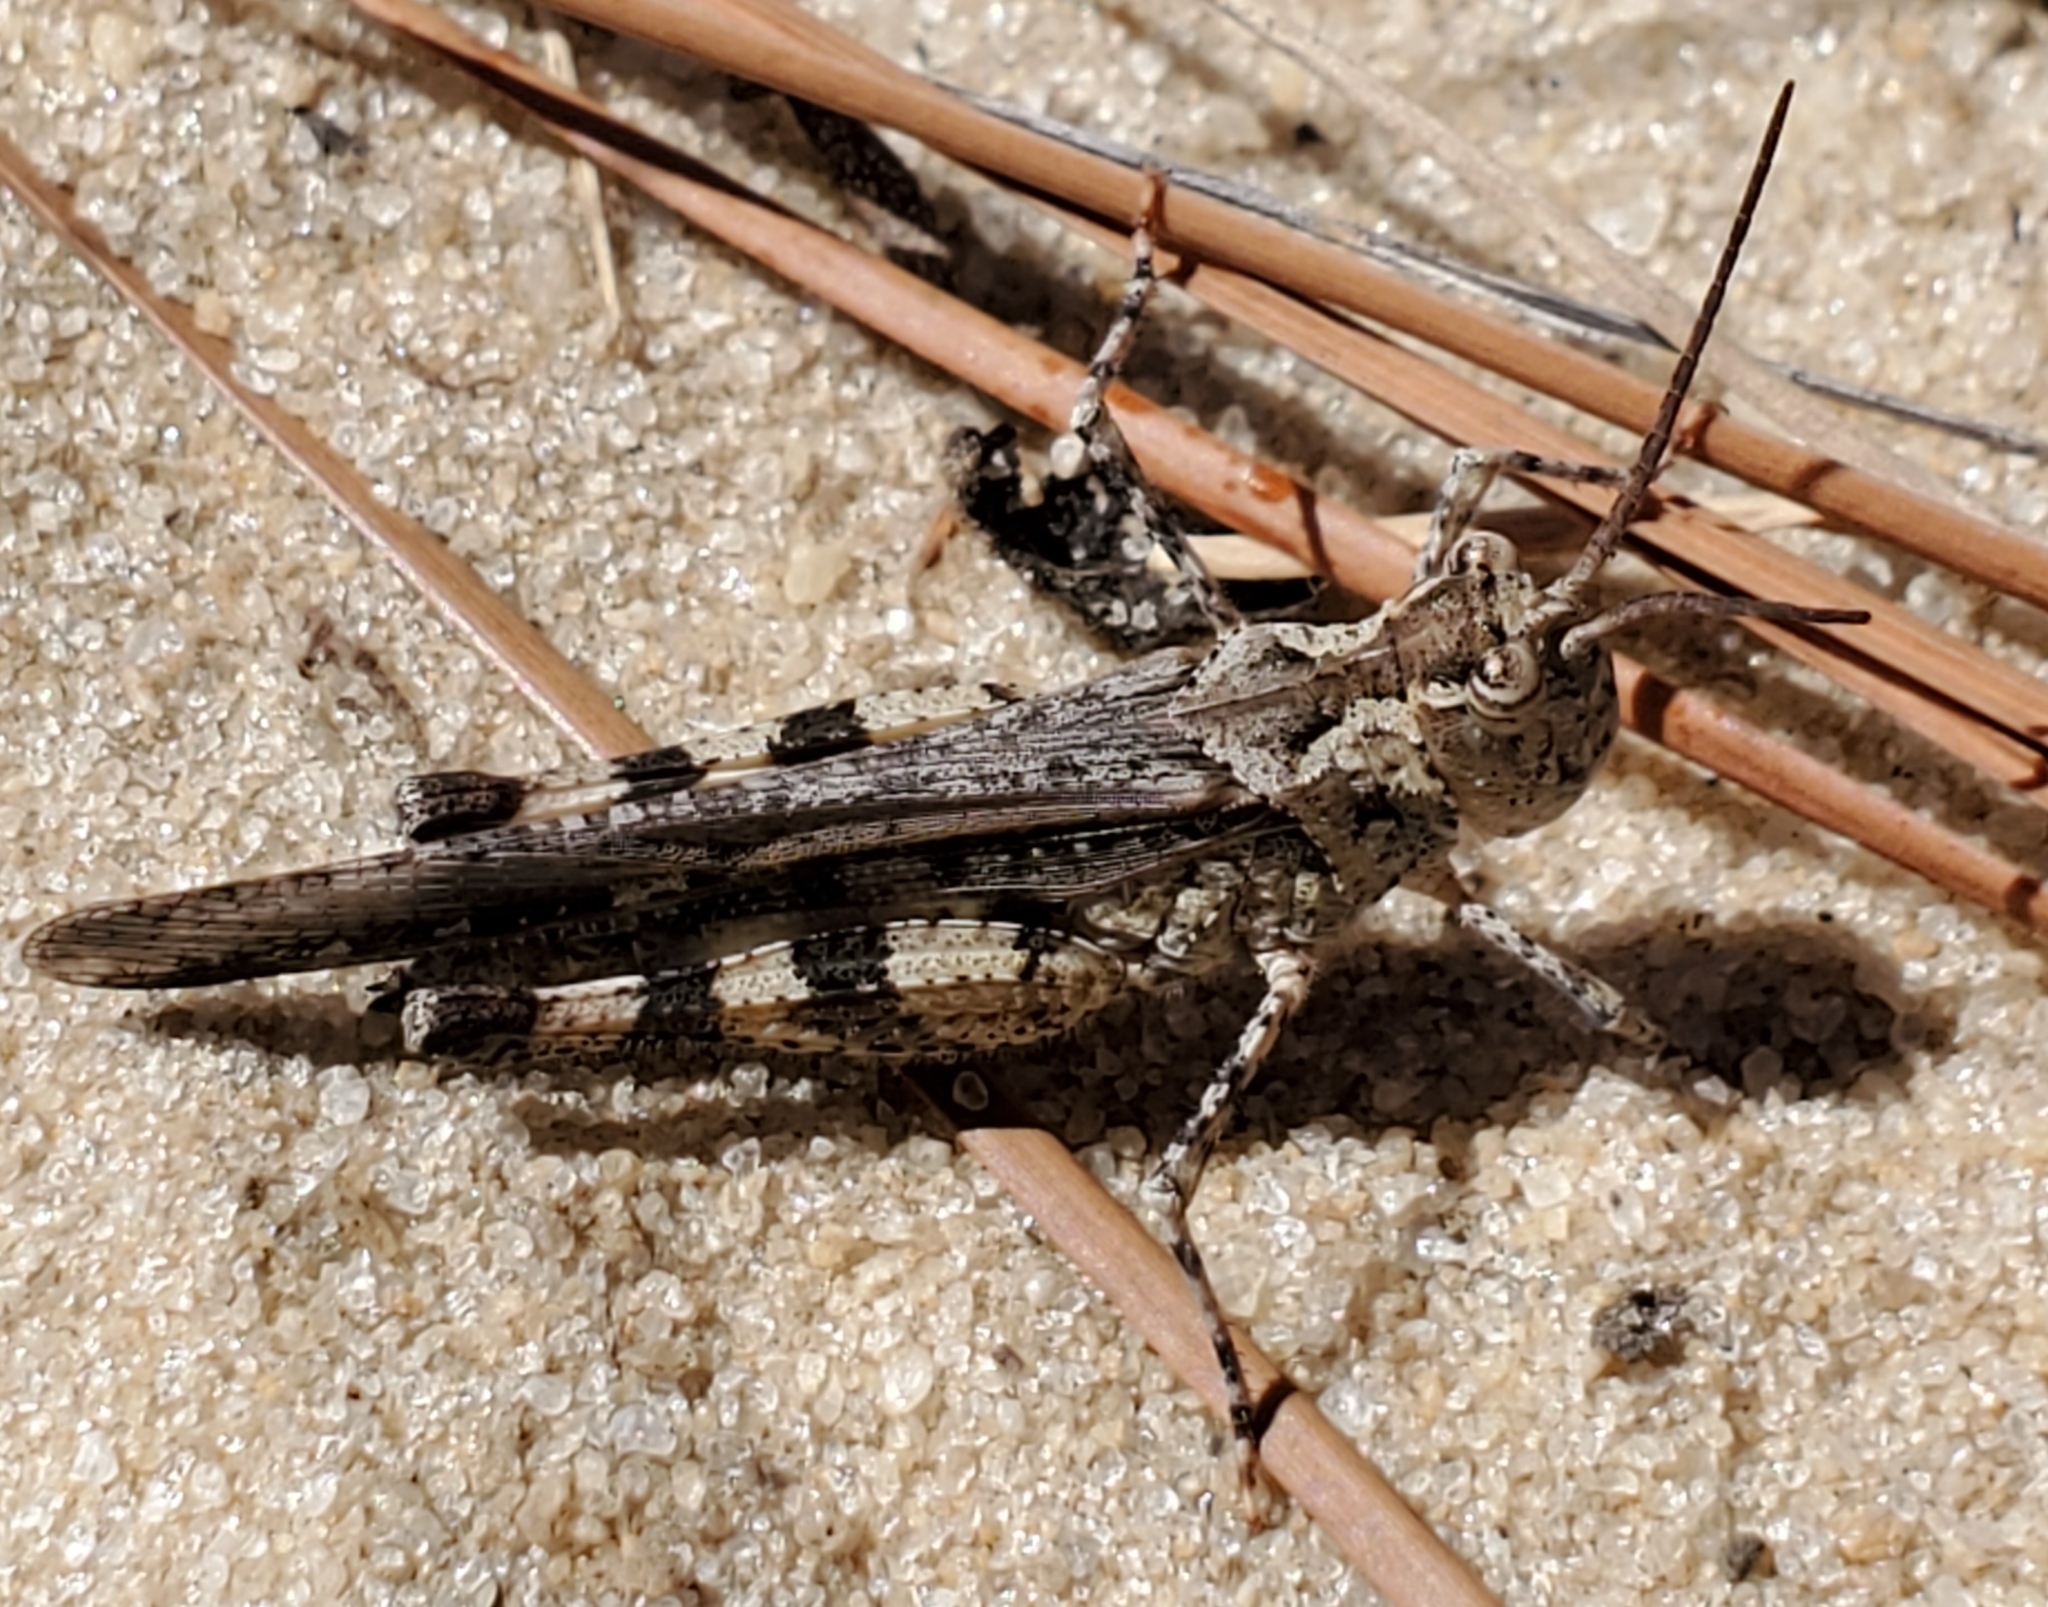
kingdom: Animalia
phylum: Arthropoda
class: Insecta
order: Orthoptera
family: Acrididae
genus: Psinidia
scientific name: Psinidia fenestralis
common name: Long-horned locust
